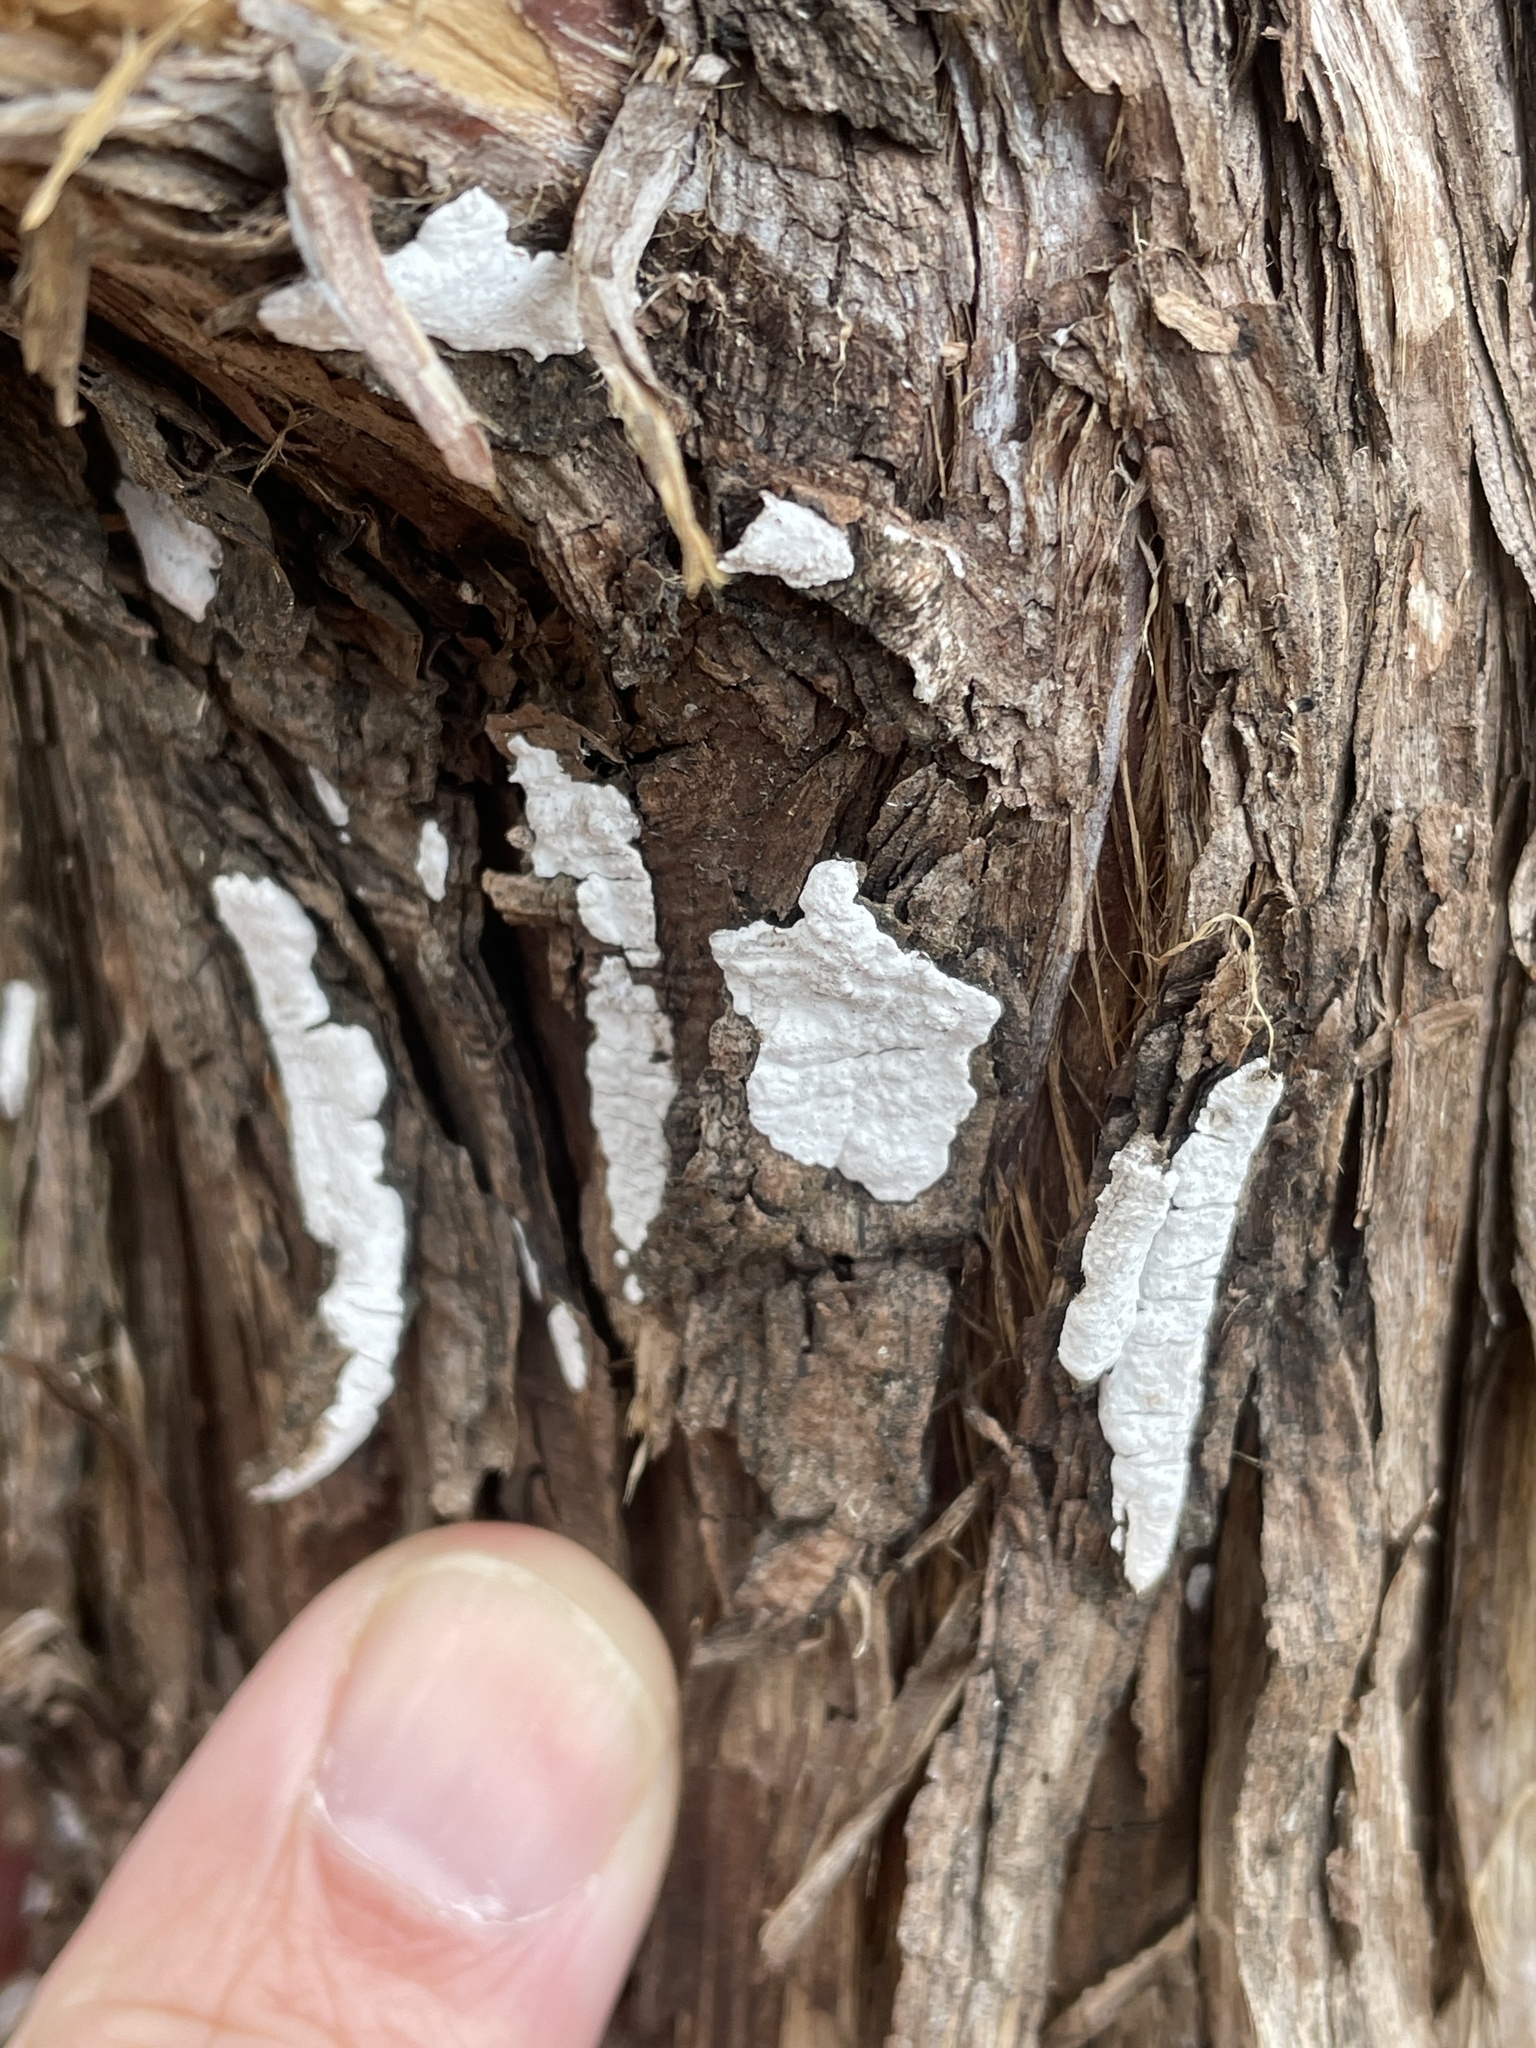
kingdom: Fungi
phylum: Basidiomycota
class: Agaricomycetes
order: Agaricales
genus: Dendrothele
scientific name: Dendrothele nivosa
